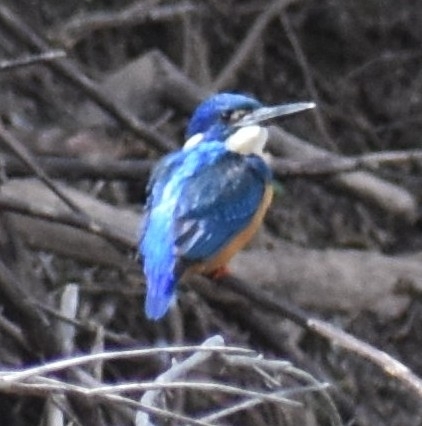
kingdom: Animalia
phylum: Chordata
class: Aves
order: Coraciiformes
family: Alcedinidae
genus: Alcedo
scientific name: Alcedo semitorquata
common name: Half-collared kingfisher
